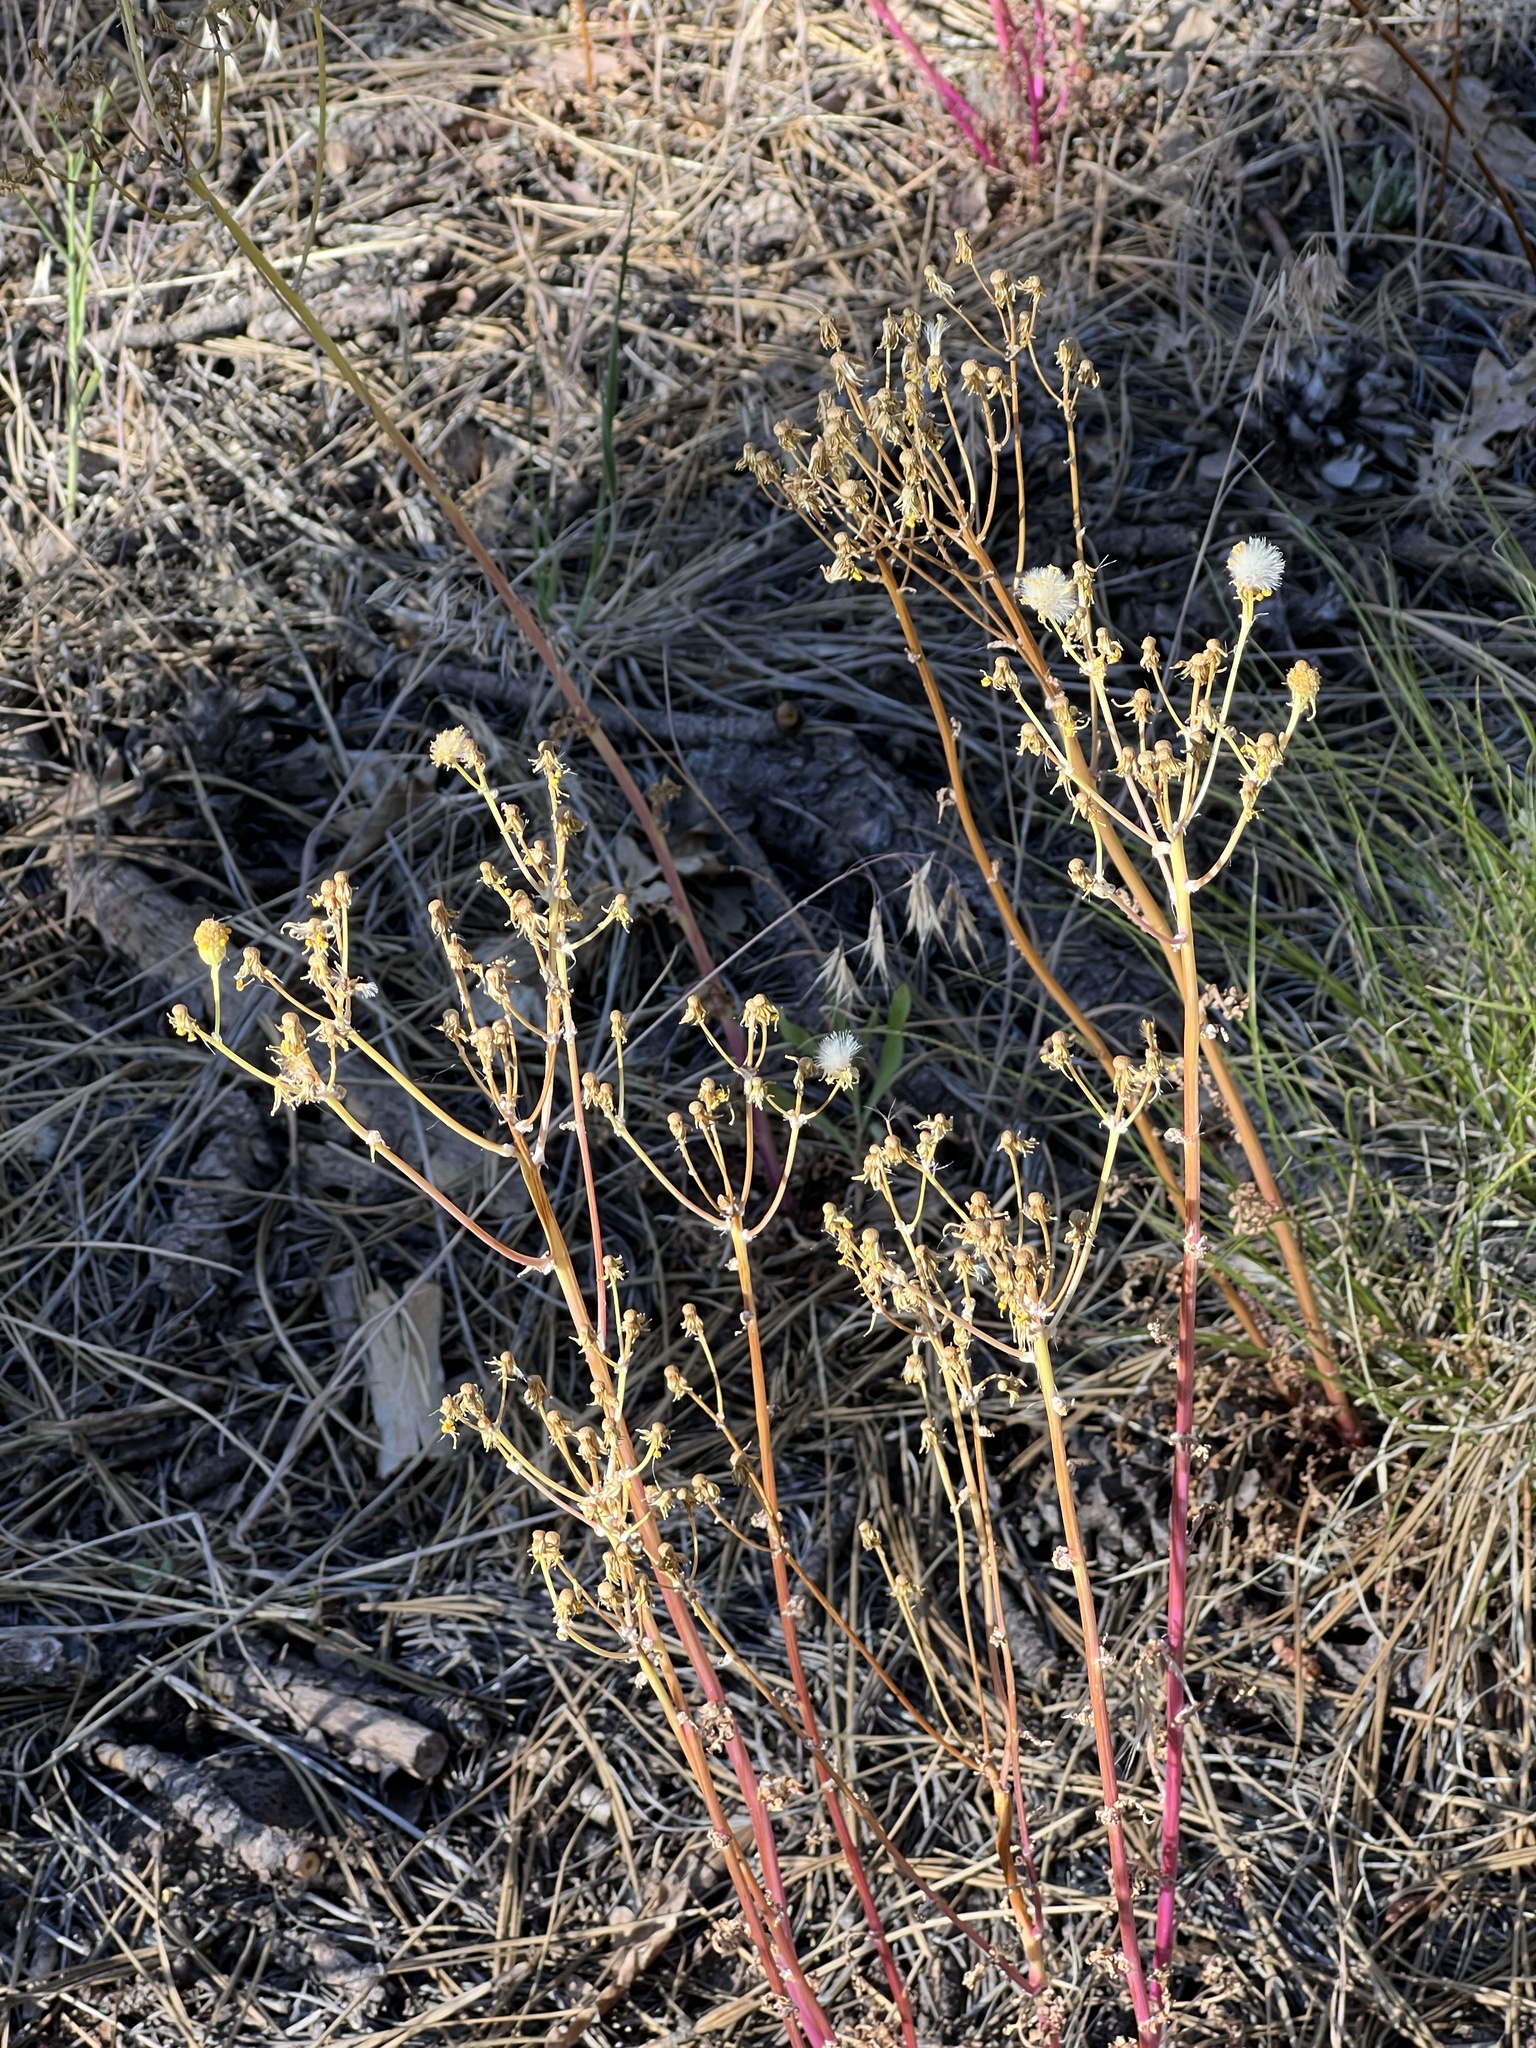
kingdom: Plantae
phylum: Tracheophyta
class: Magnoliopsida
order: Asterales
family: Asteraceae
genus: Packera
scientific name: Packera multilobata
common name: Lobe-leaf groundsel
